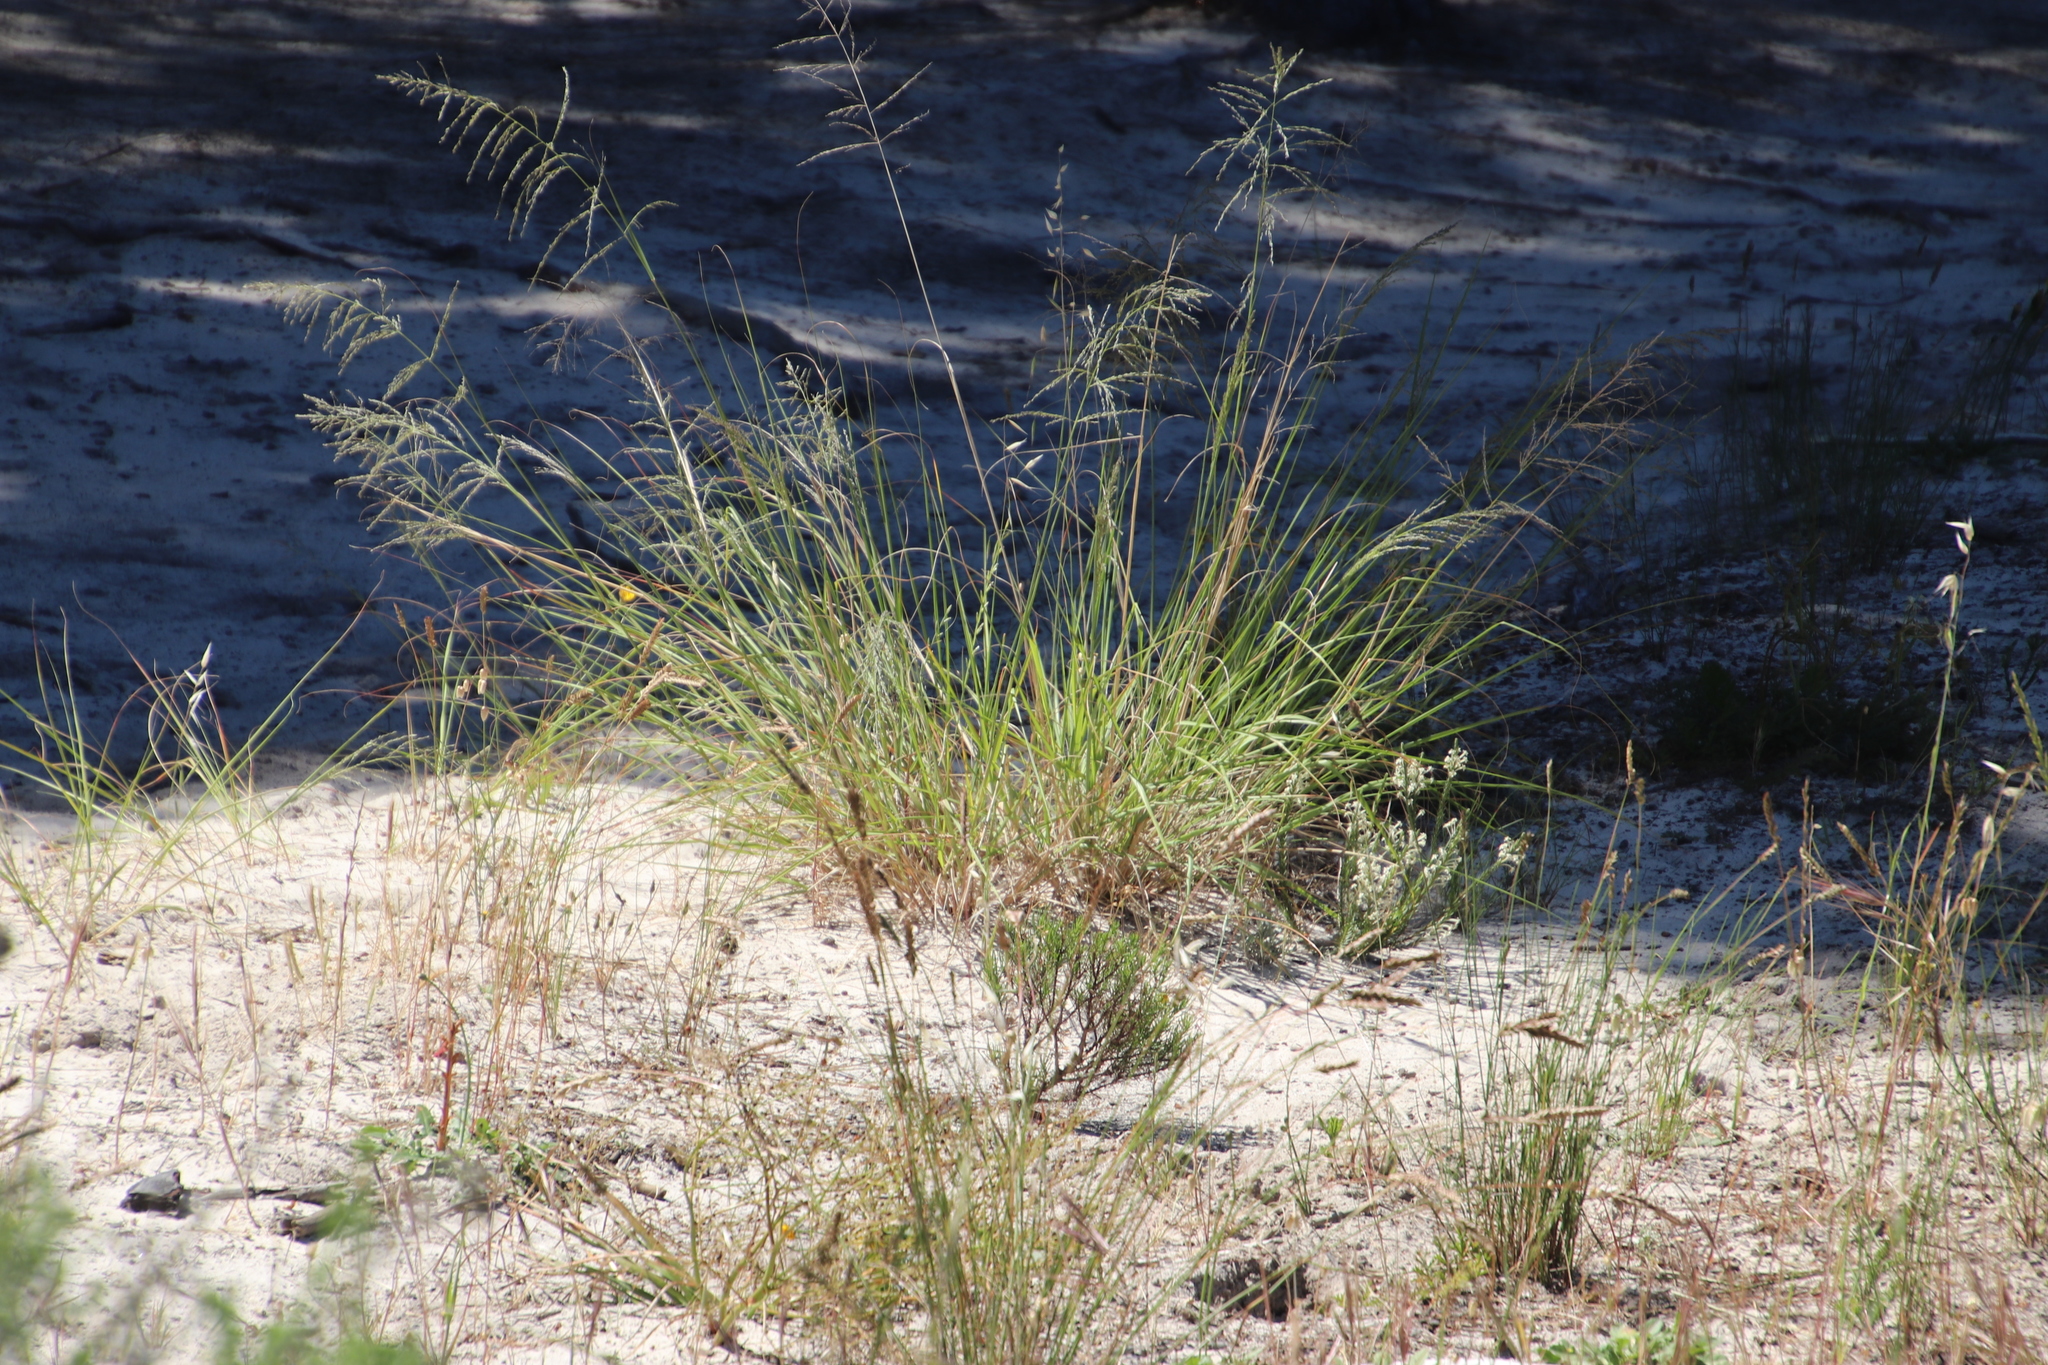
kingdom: Plantae
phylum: Tracheophyta
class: Liliopsida
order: Poales
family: Poaceae
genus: Eragrostis
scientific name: Eragrostis curvula
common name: African love-grass
